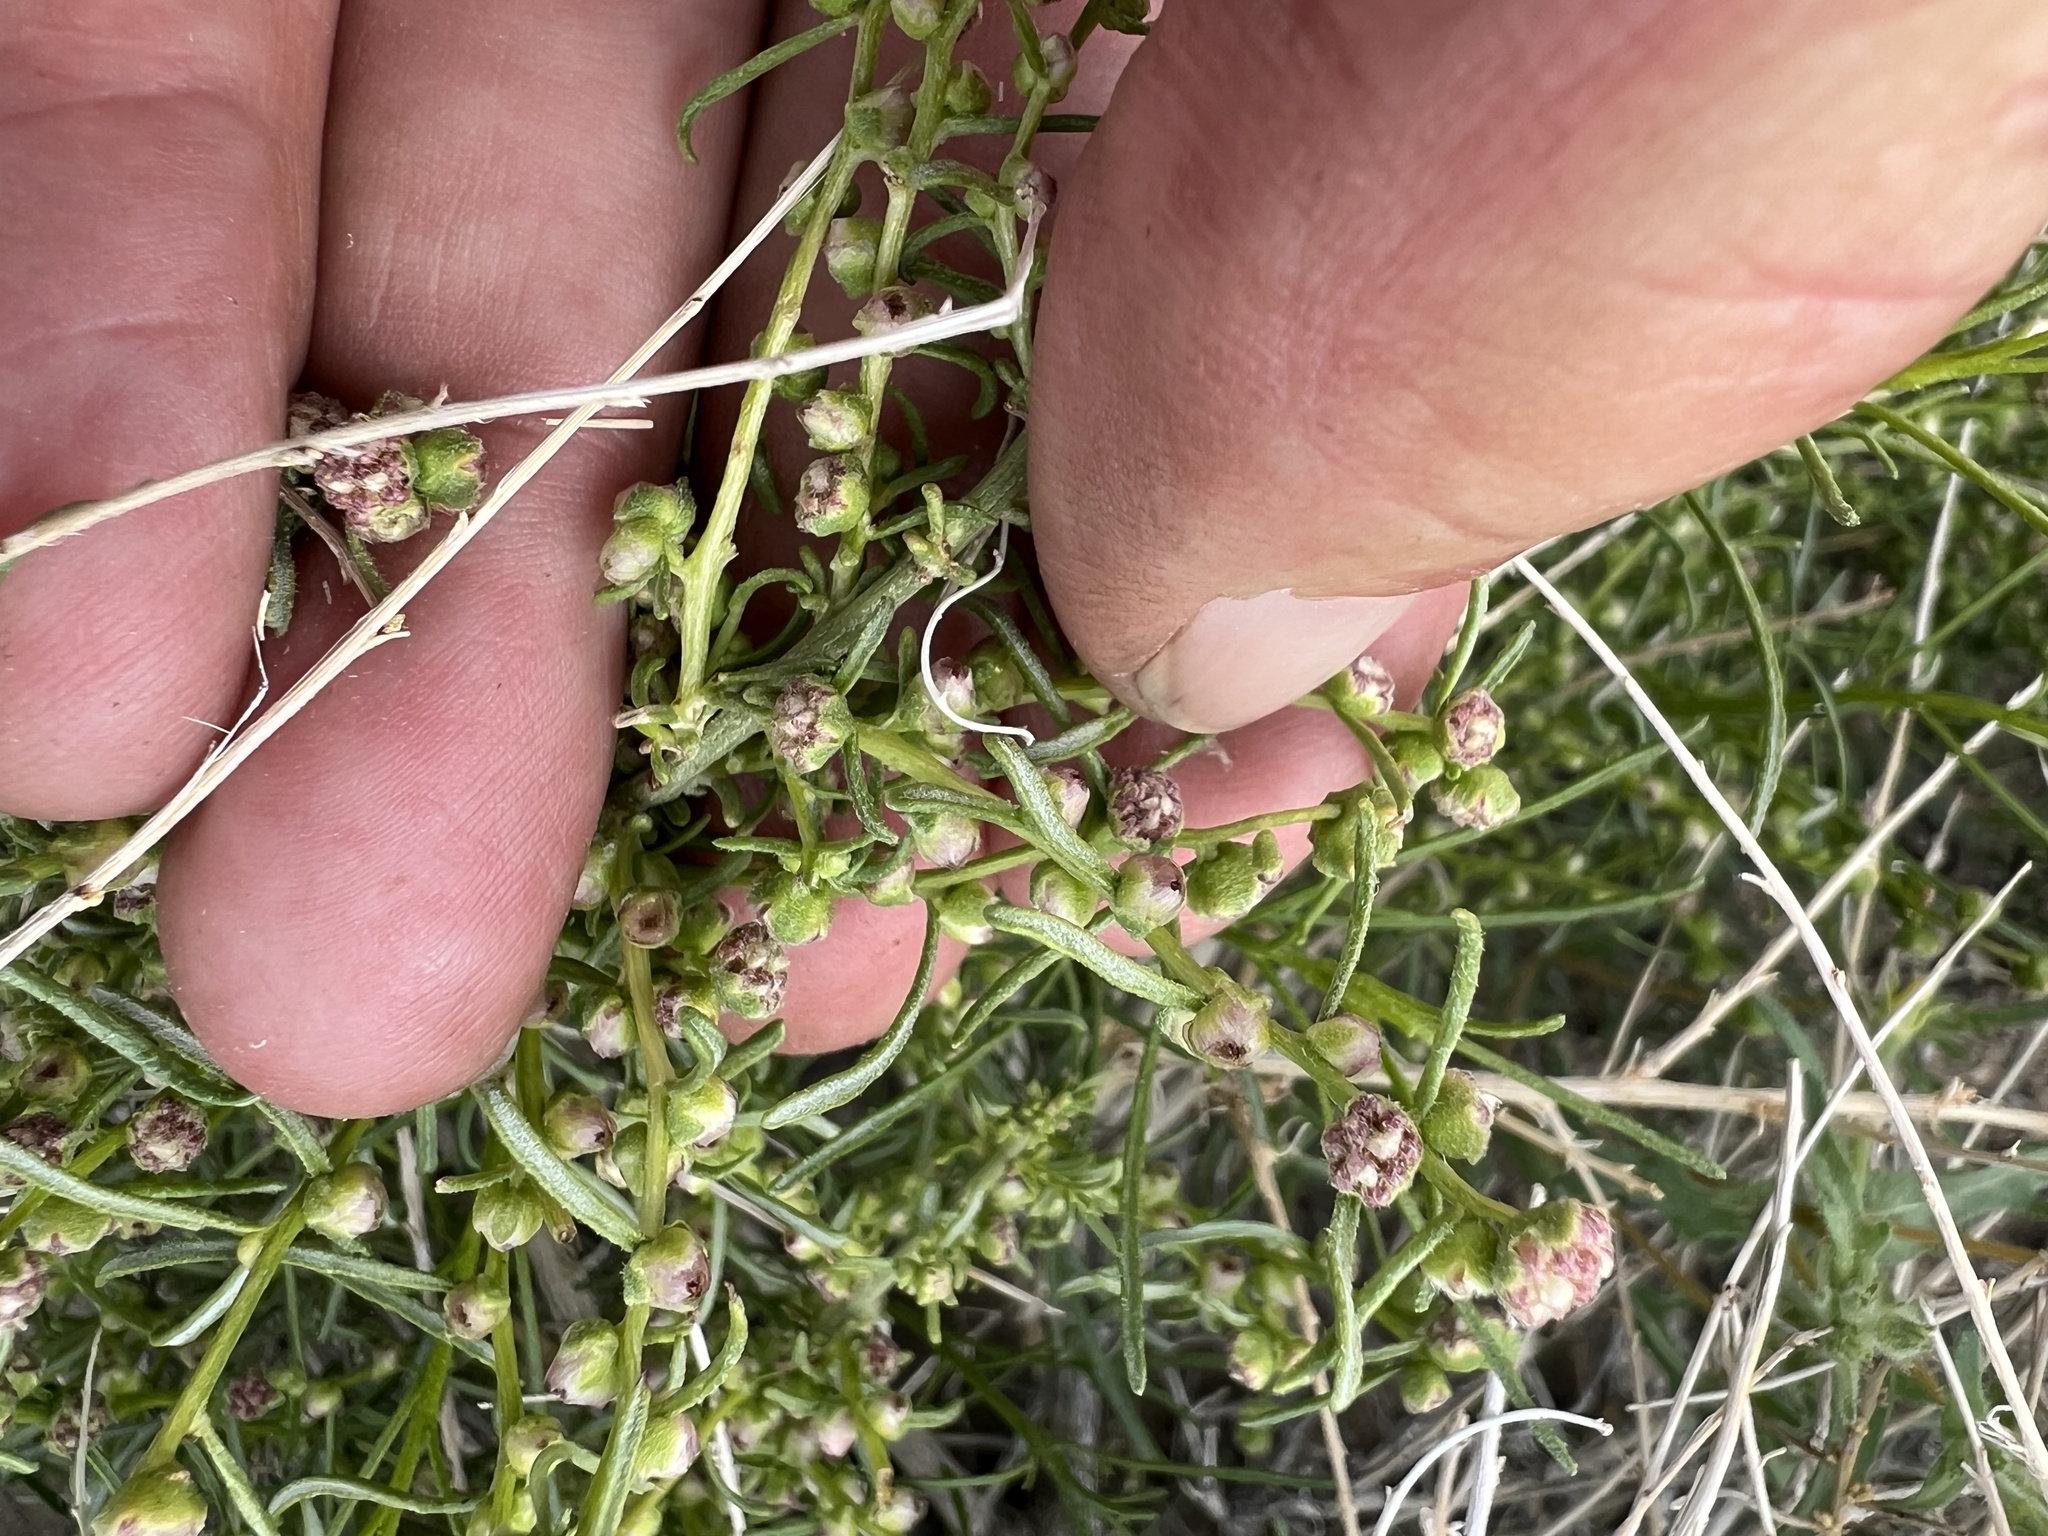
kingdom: Plantae
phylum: Tracheophyta
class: Magnoliopsida
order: Asterales
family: Asteraceae
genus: Ambrosia
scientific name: Ambrosia salsola
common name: Burrobrush
